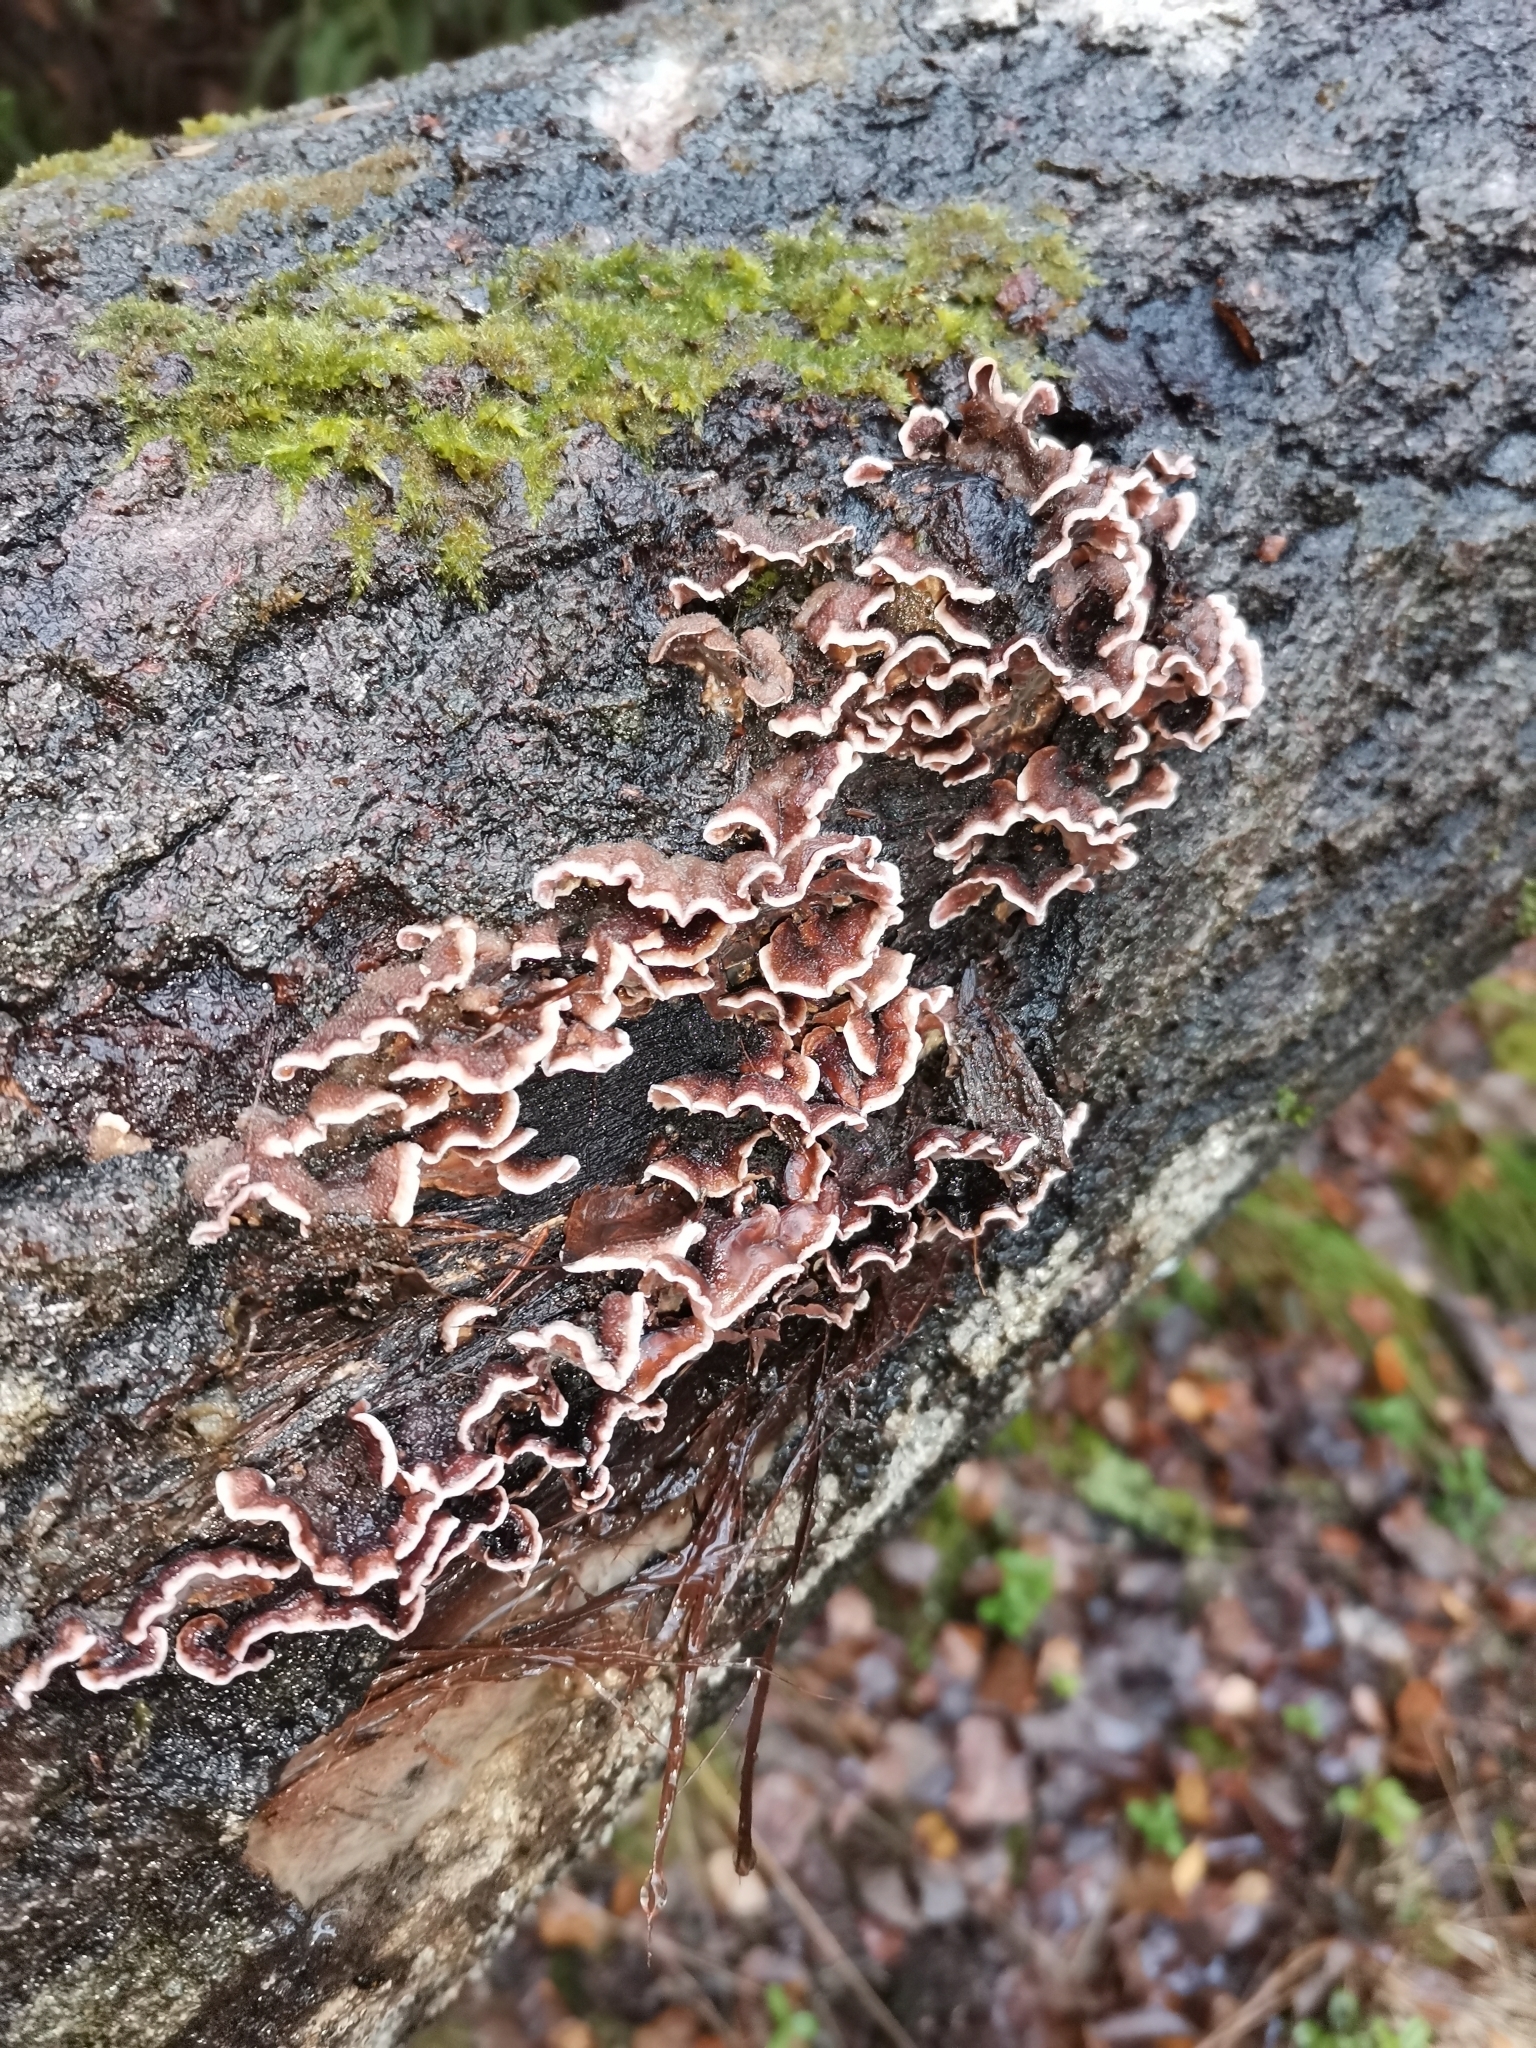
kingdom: Fungi
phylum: Basidiomycota
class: Agaricomycetes
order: Agaricales
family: Cyphellaceae
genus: Chondrostereum
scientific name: Chondrostereum purpureum
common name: Silver leaf disease
